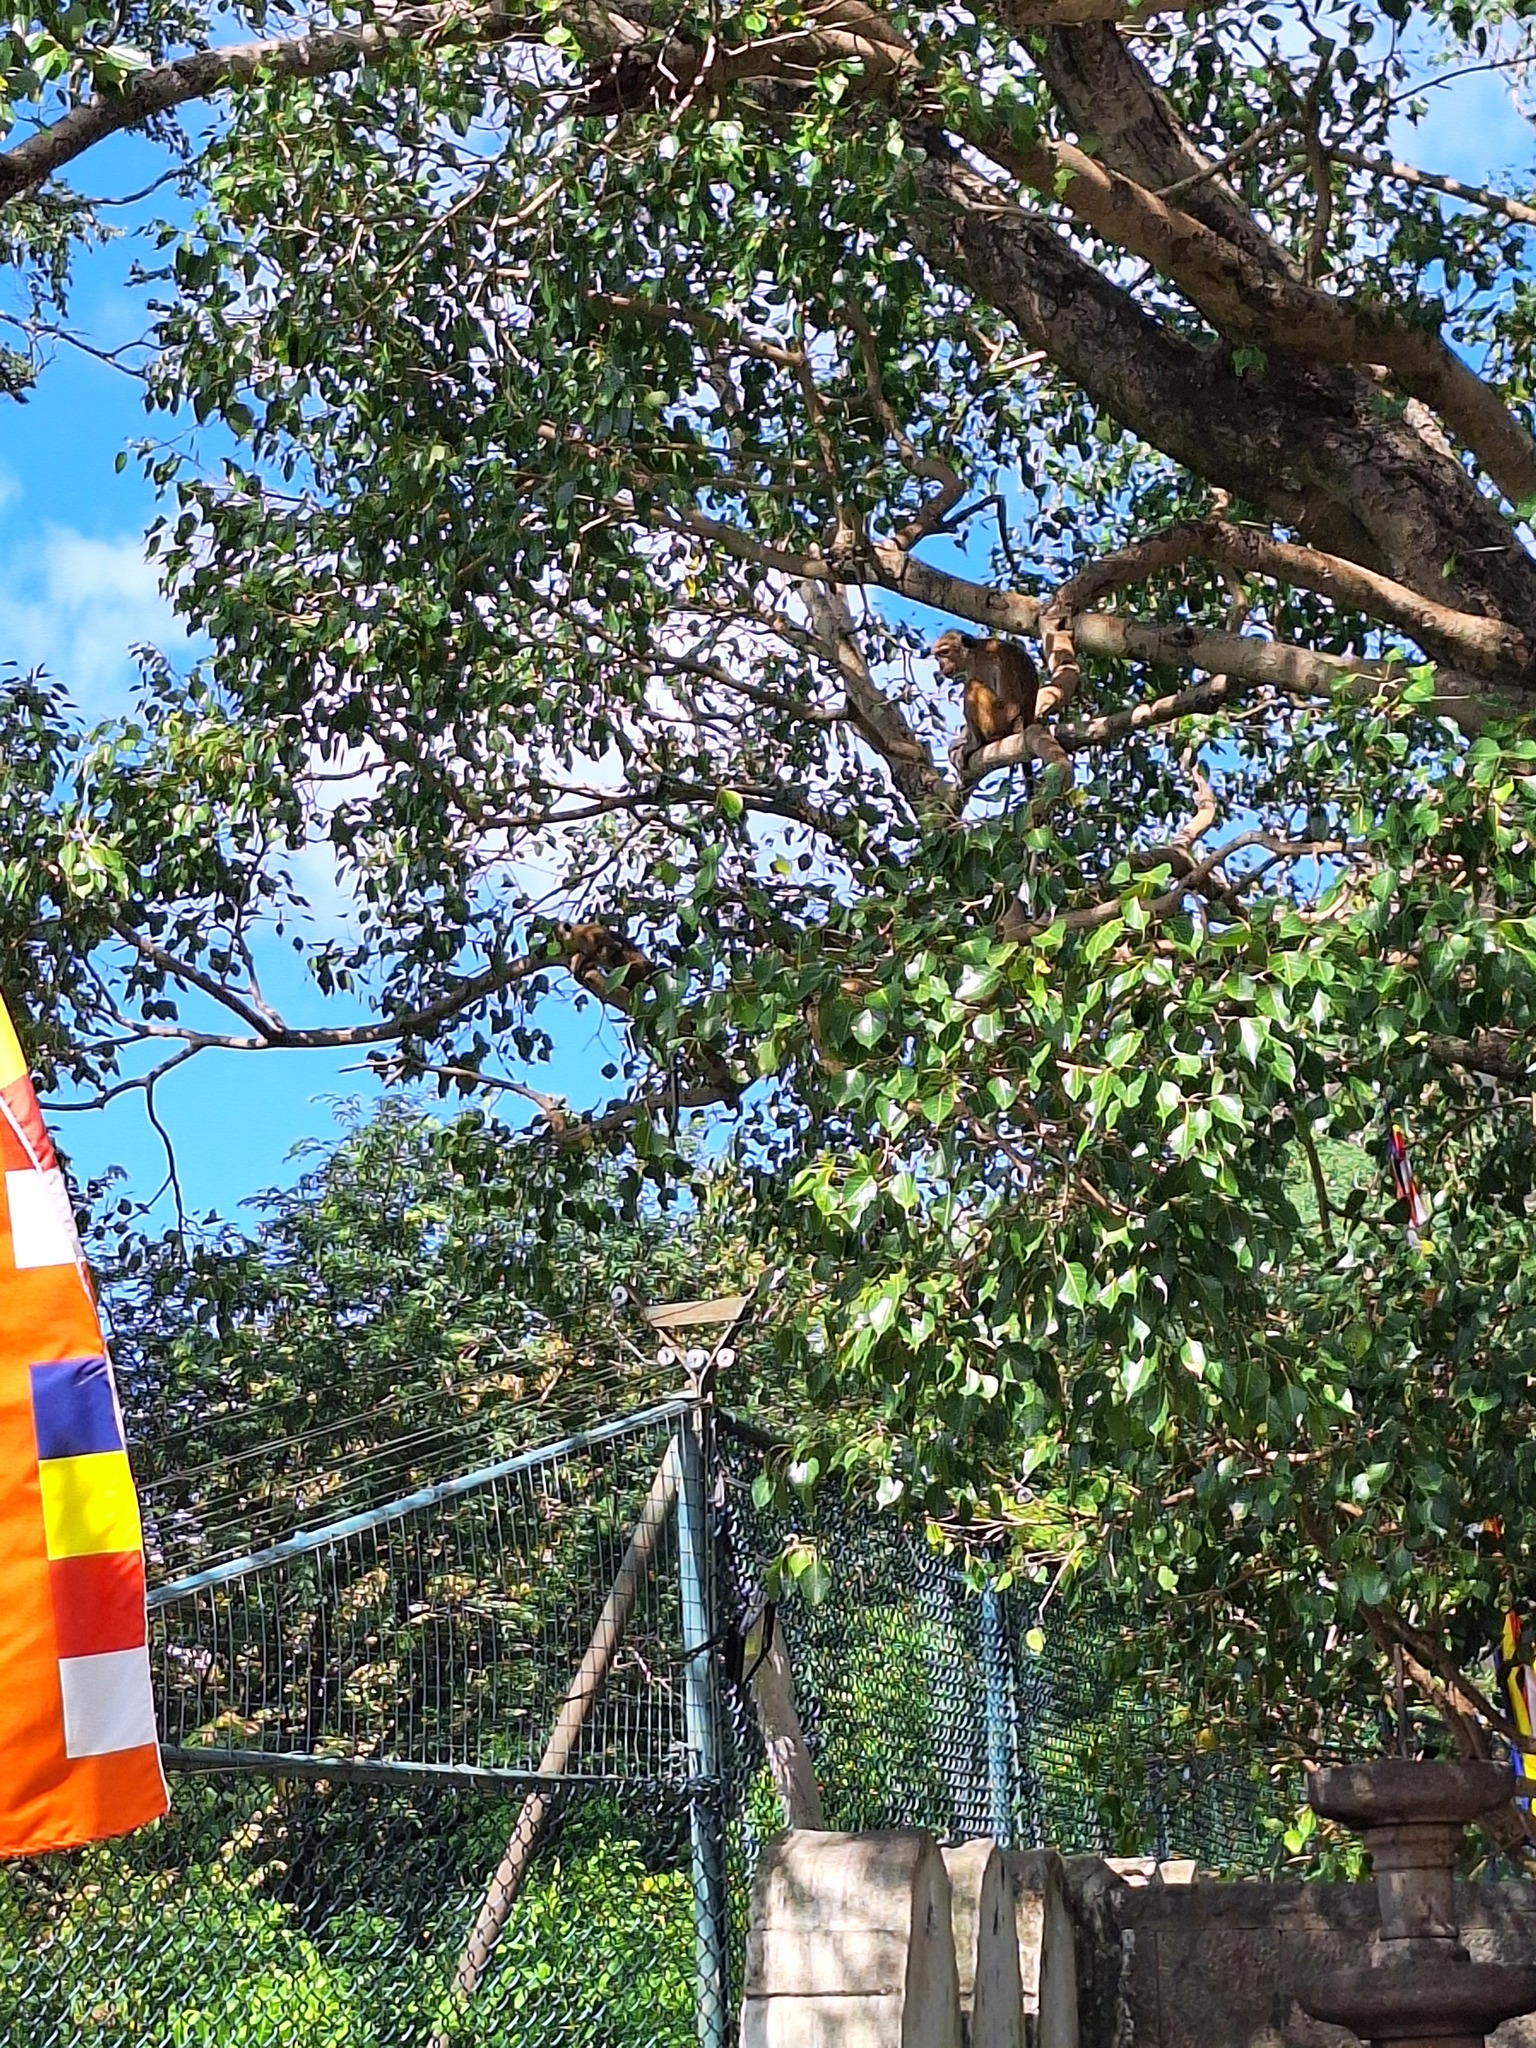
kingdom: Animalia
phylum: Chordata
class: Mammalia
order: Primates
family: Cercopithecidae
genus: Macaca
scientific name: Macaca sinica
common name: Toque macaque
